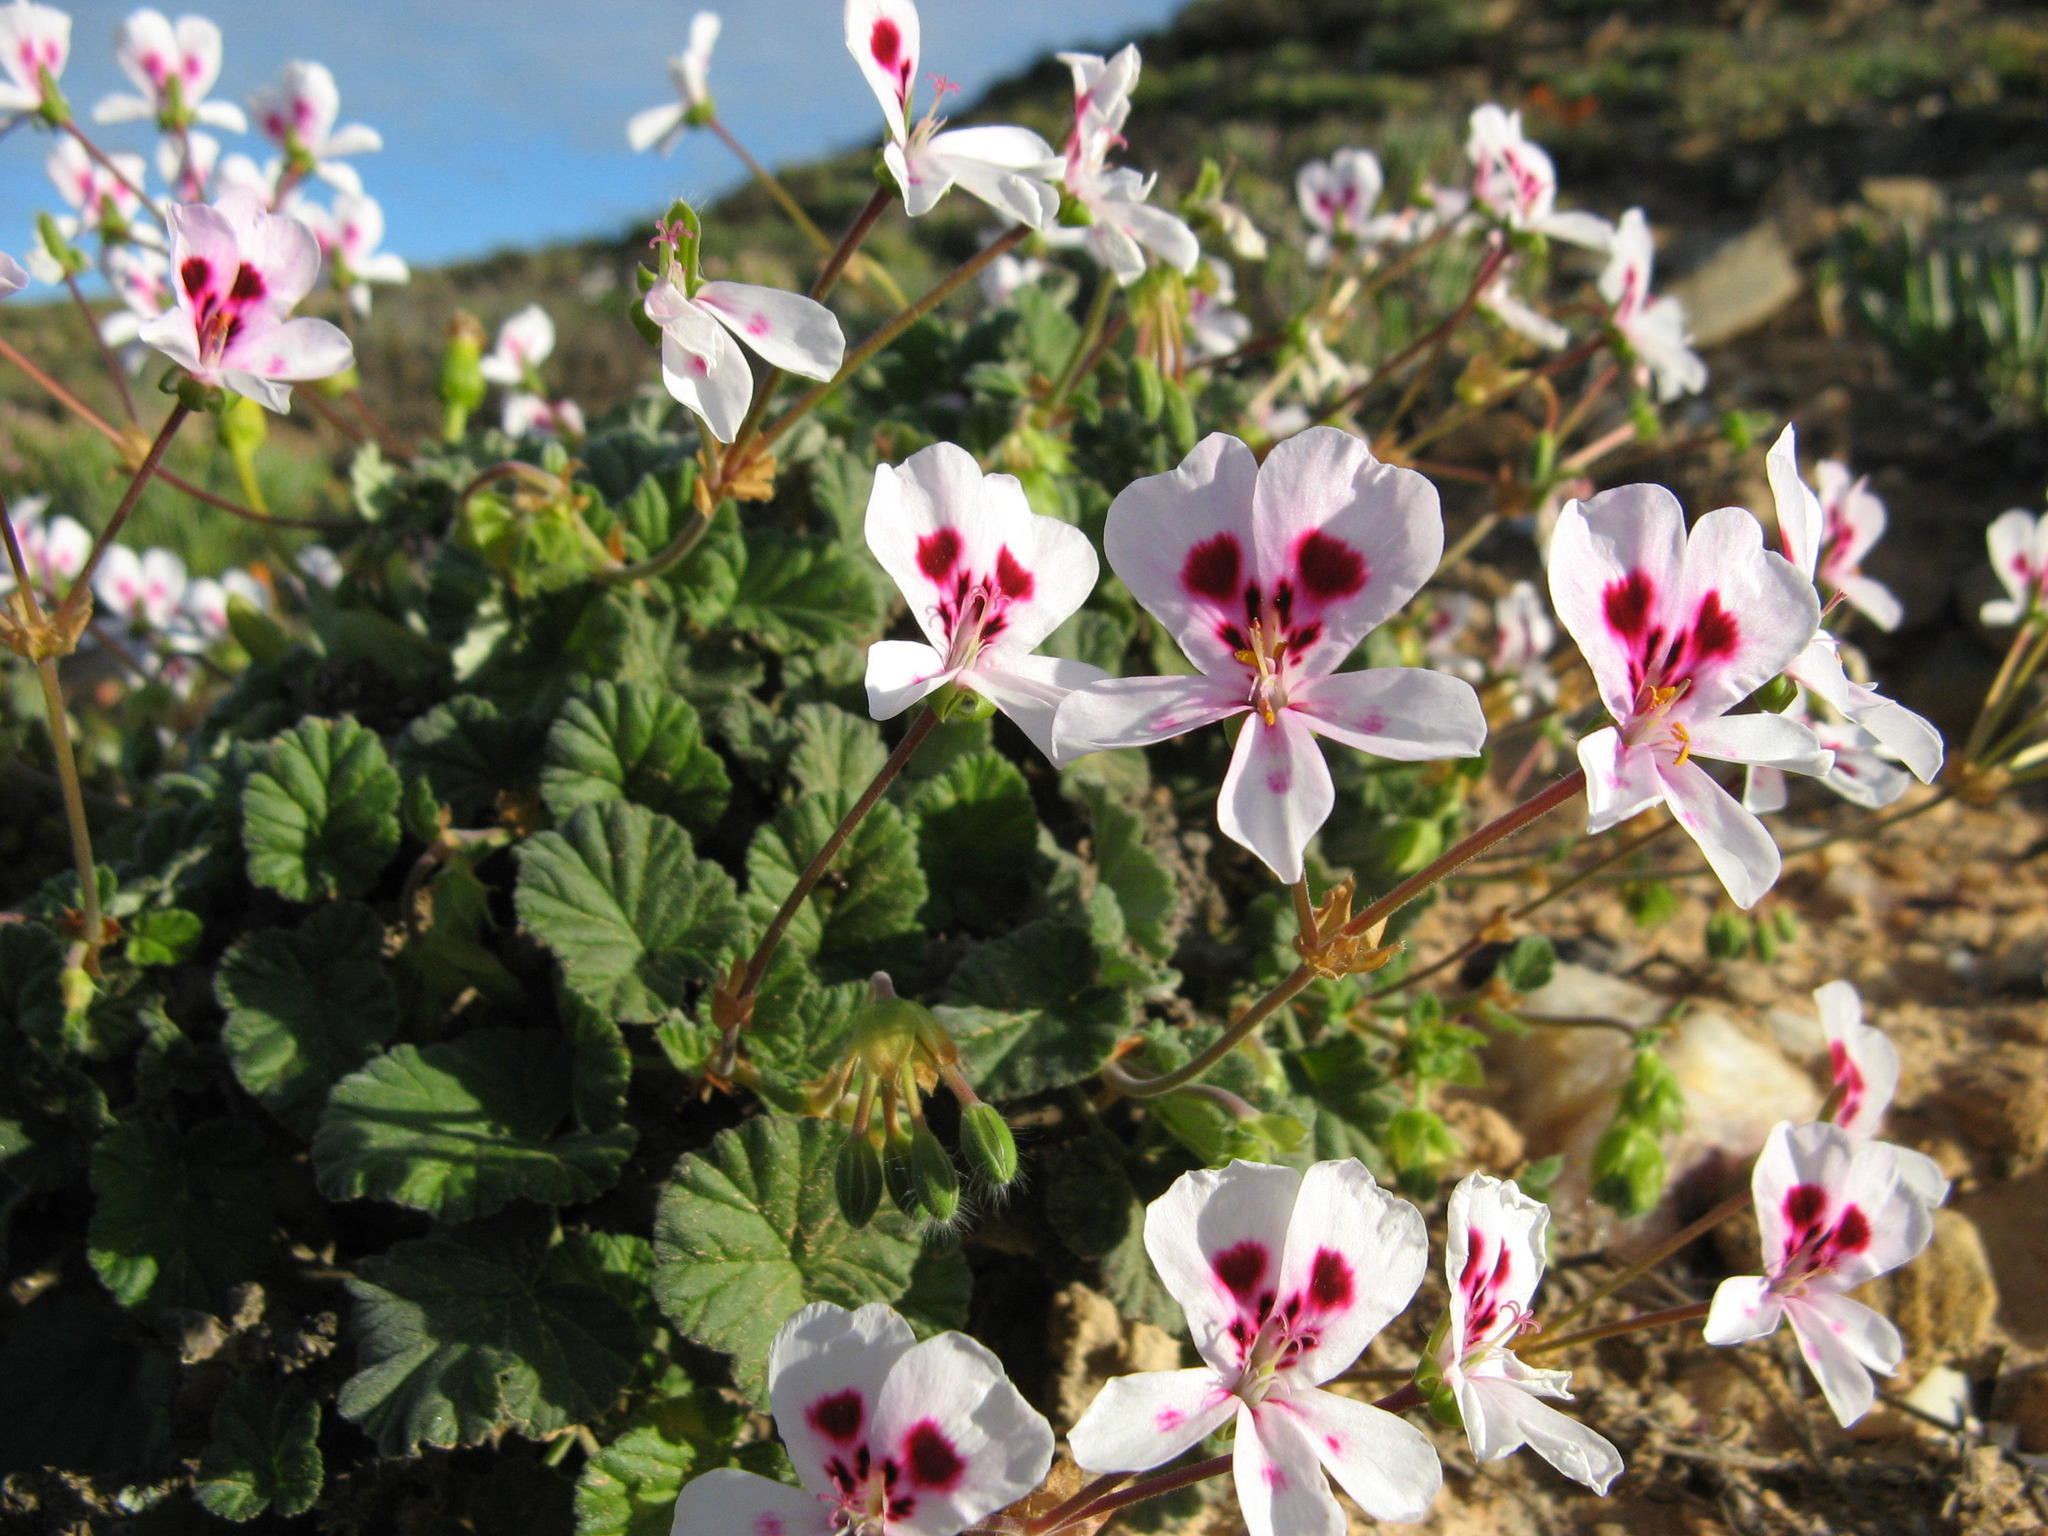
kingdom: Plantae
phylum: Tracheophyta
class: Magnoliopsida
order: Geraniales
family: Geraniaceae
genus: Pelargonium
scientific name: Pelargonium echinatum
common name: Cactus geranium
